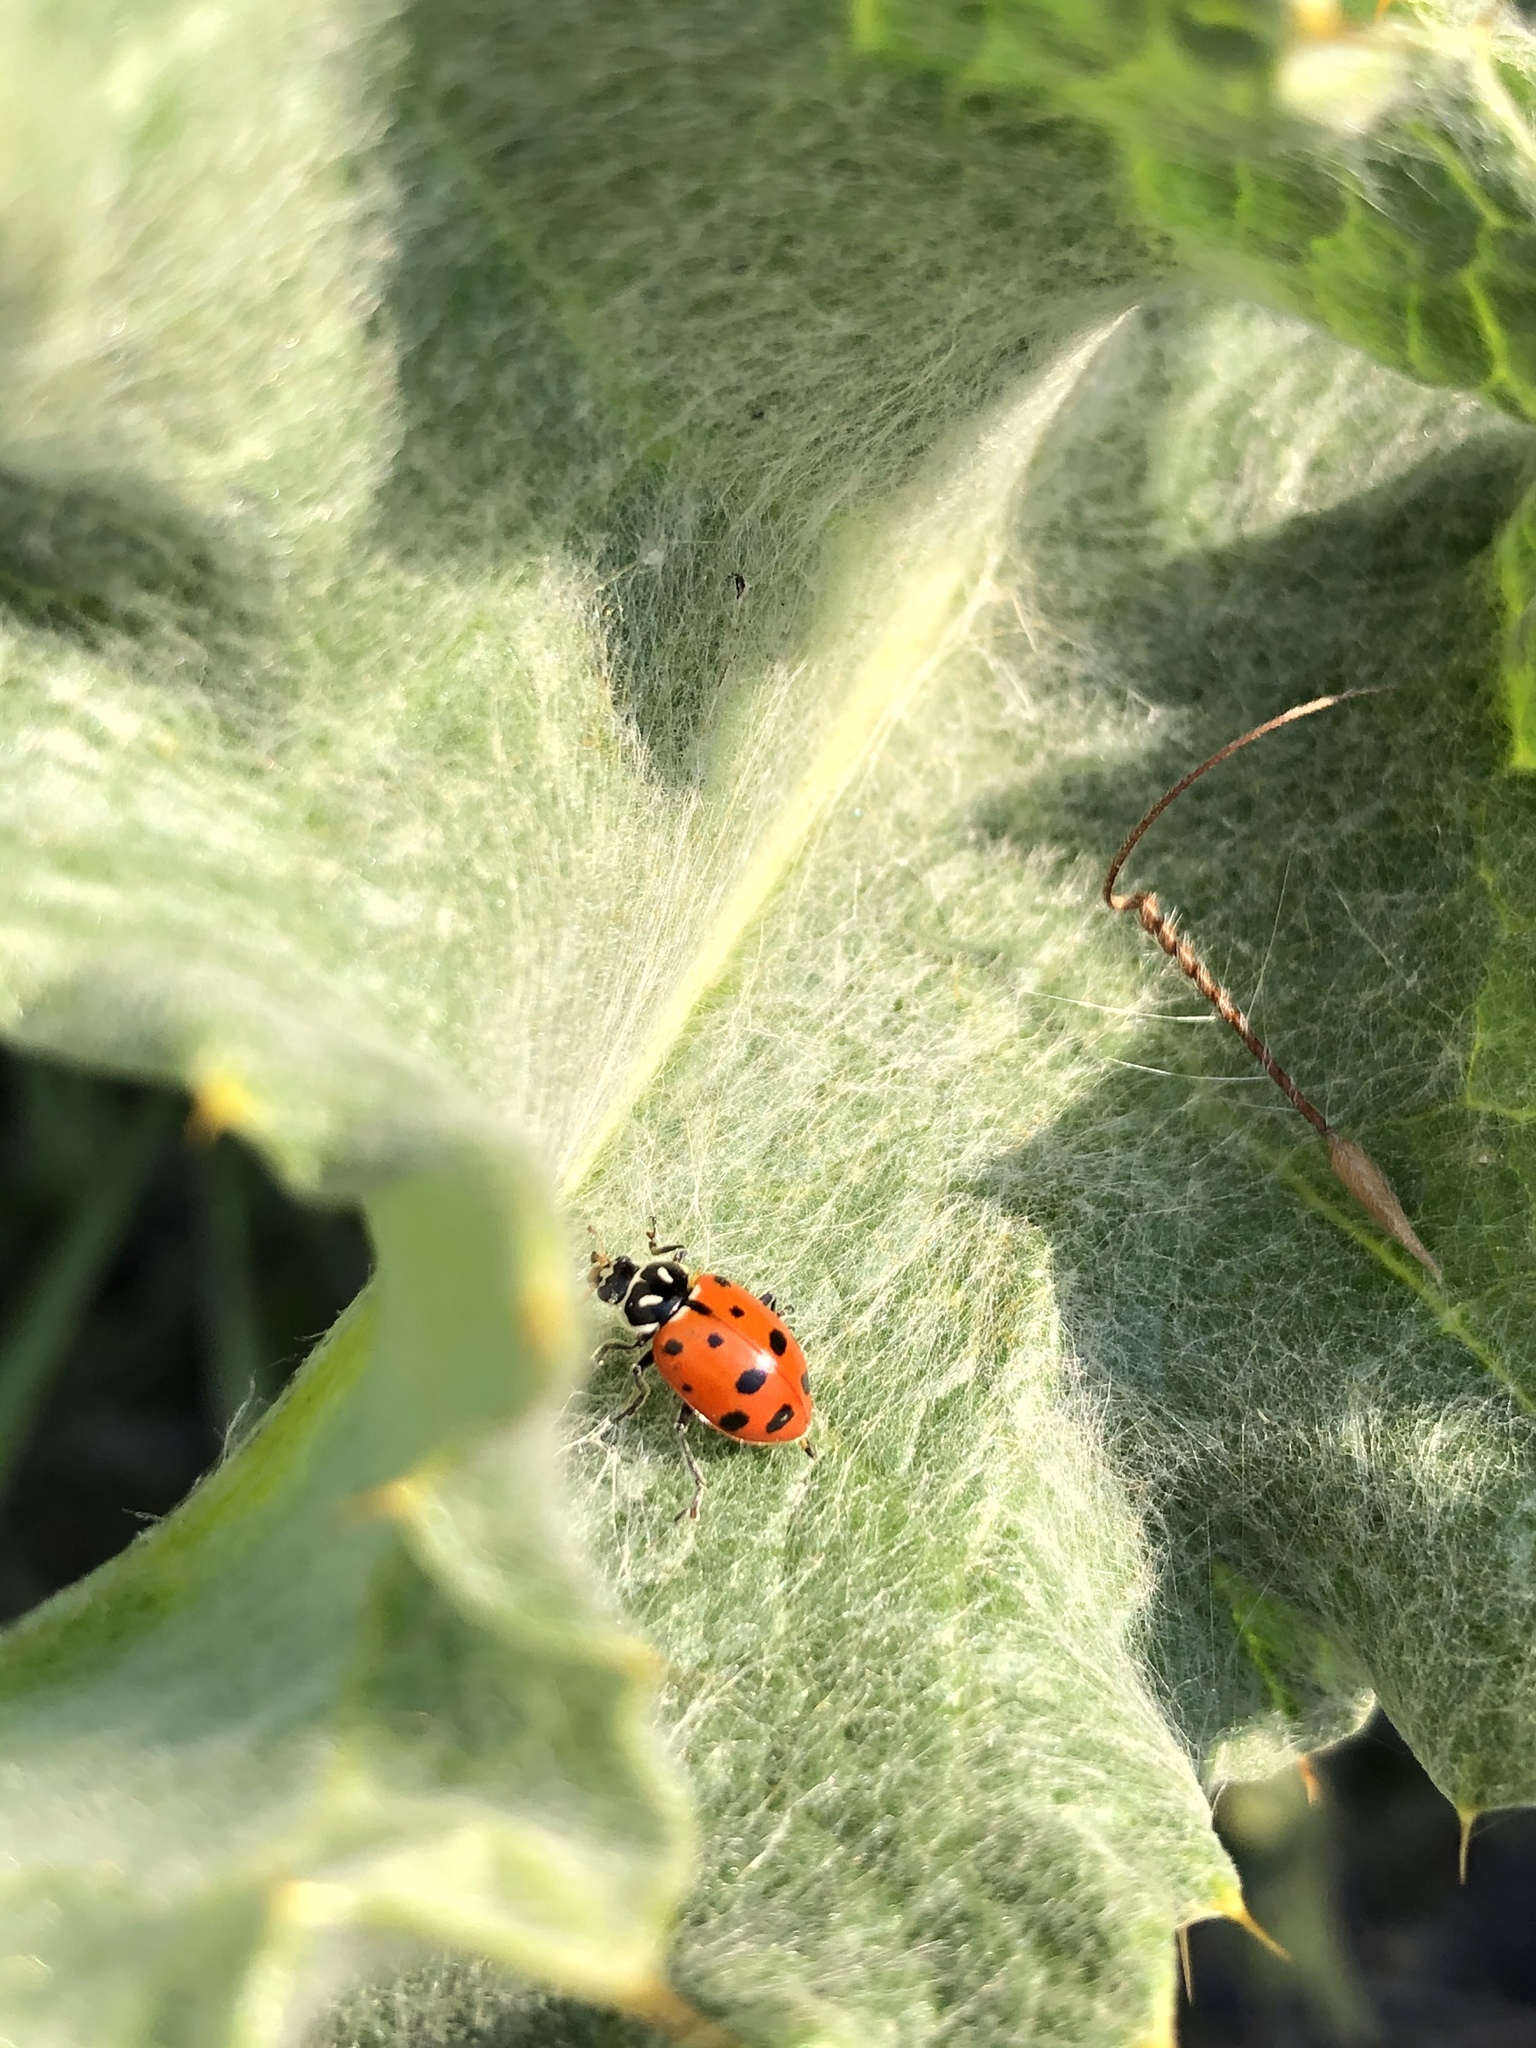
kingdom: Animalia
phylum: Arthropoda
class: Insecta
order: Coleoptera
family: Coccinellidae
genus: Hippodamia
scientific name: Hippodamia convergens
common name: Convergent lady beetle
